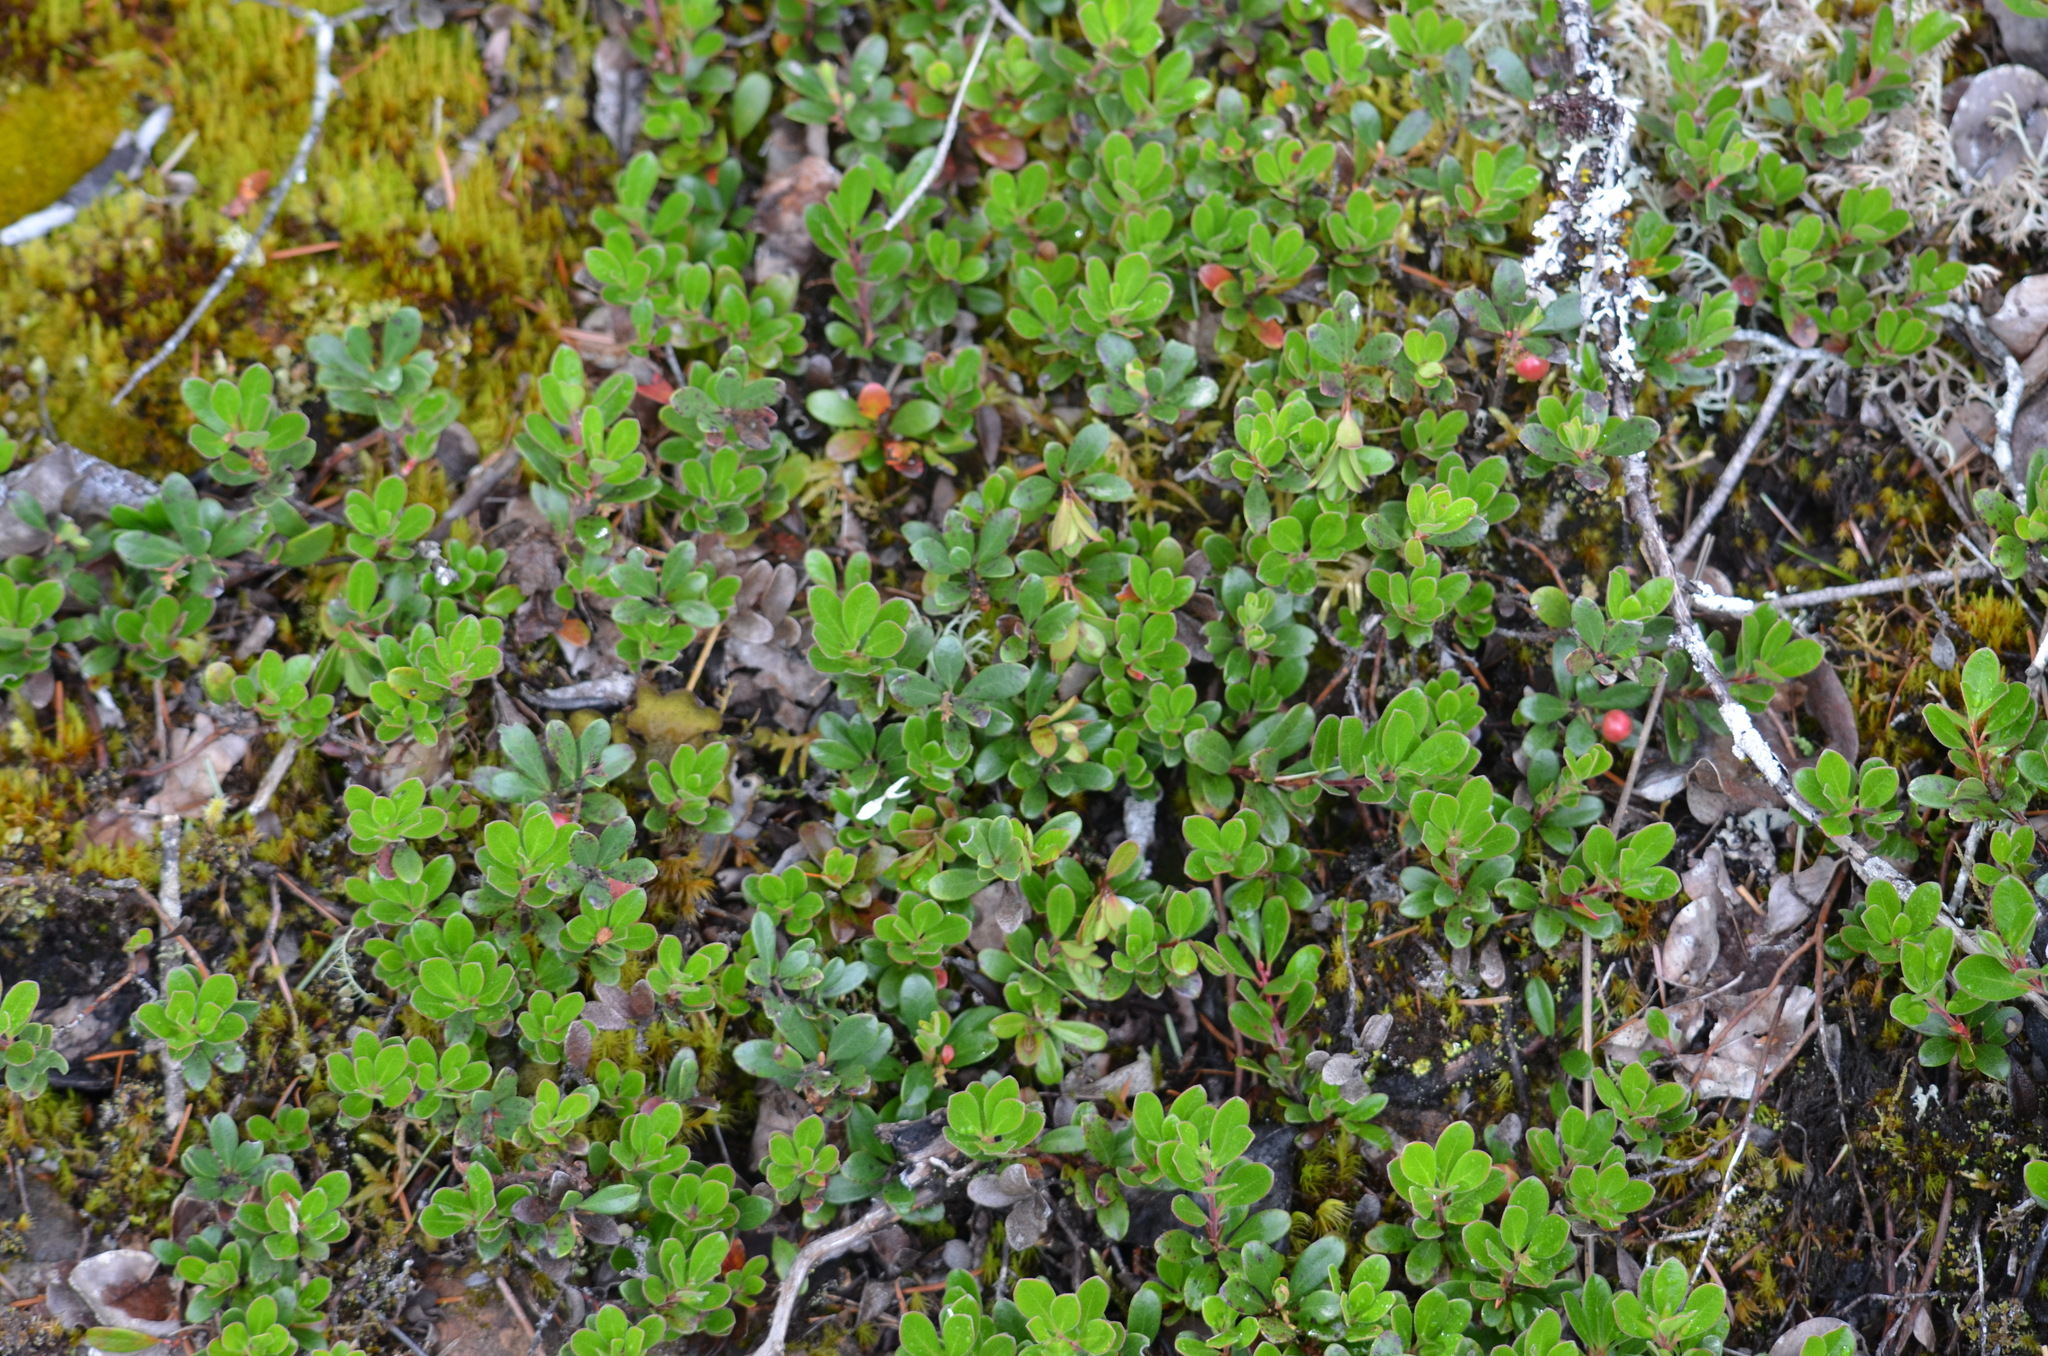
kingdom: Plantae
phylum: Tracheophyta
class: Magnoliopsida
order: Ericales
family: Ericaceae
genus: Arctostaphylos
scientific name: Arctostaphylos uva-ursi
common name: Bearberry
